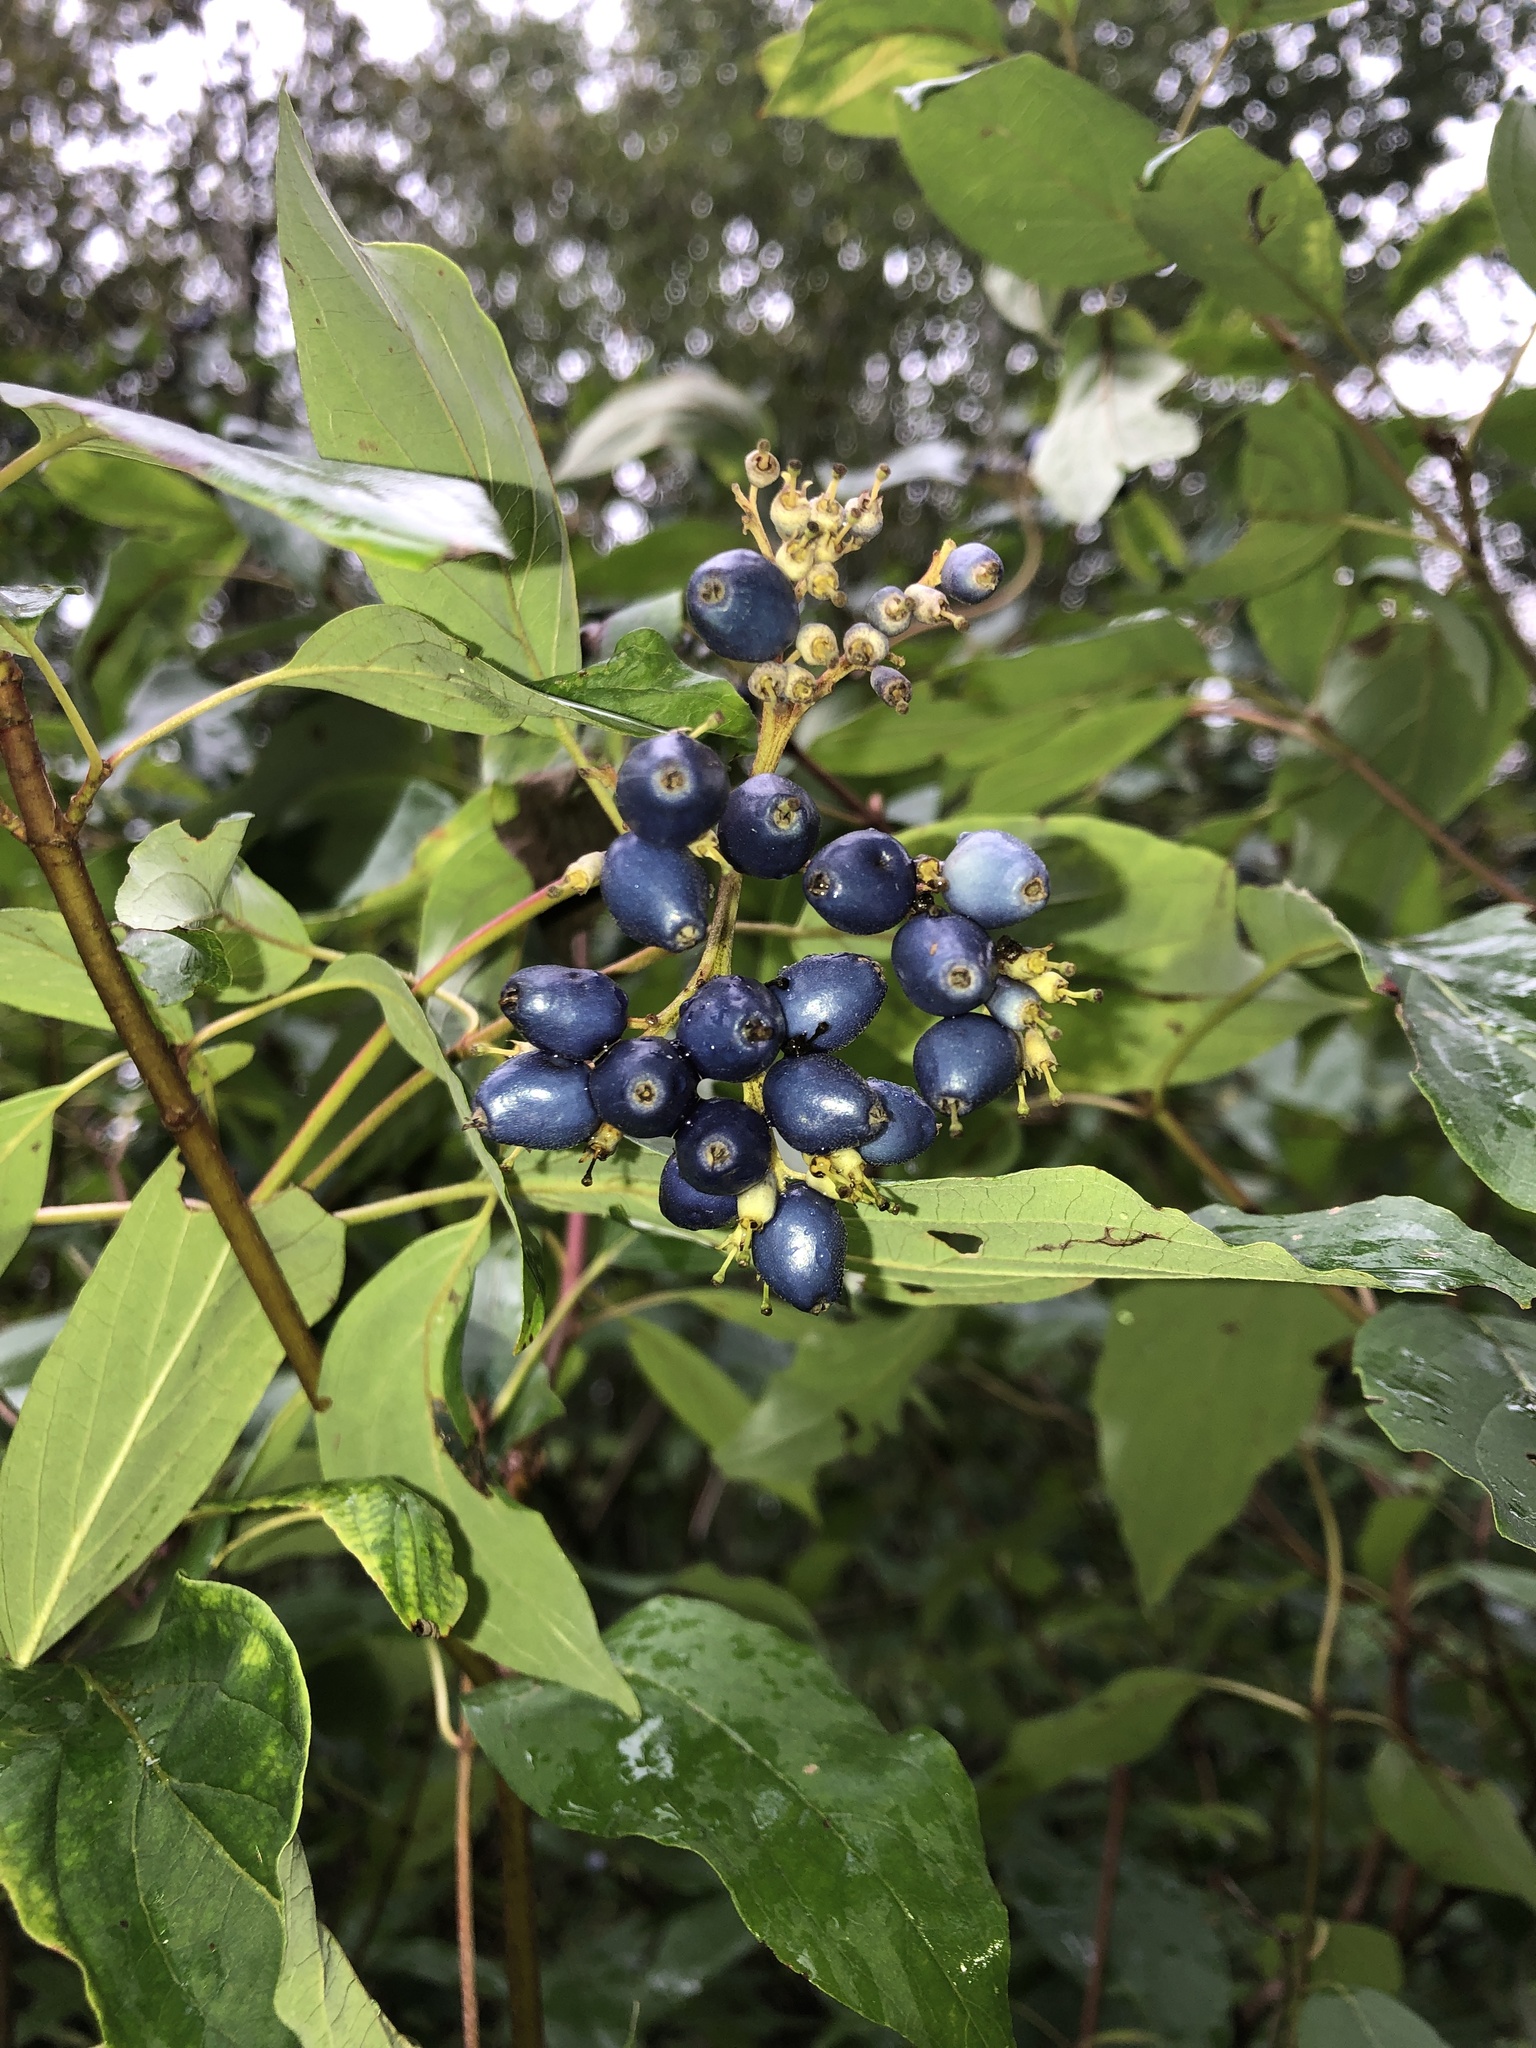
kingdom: Plantae
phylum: Tracheophyta
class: Magnoliopsida
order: Cornales
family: Cornaceae
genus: Cornus
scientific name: Cornus amomum
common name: Silky dogwood
